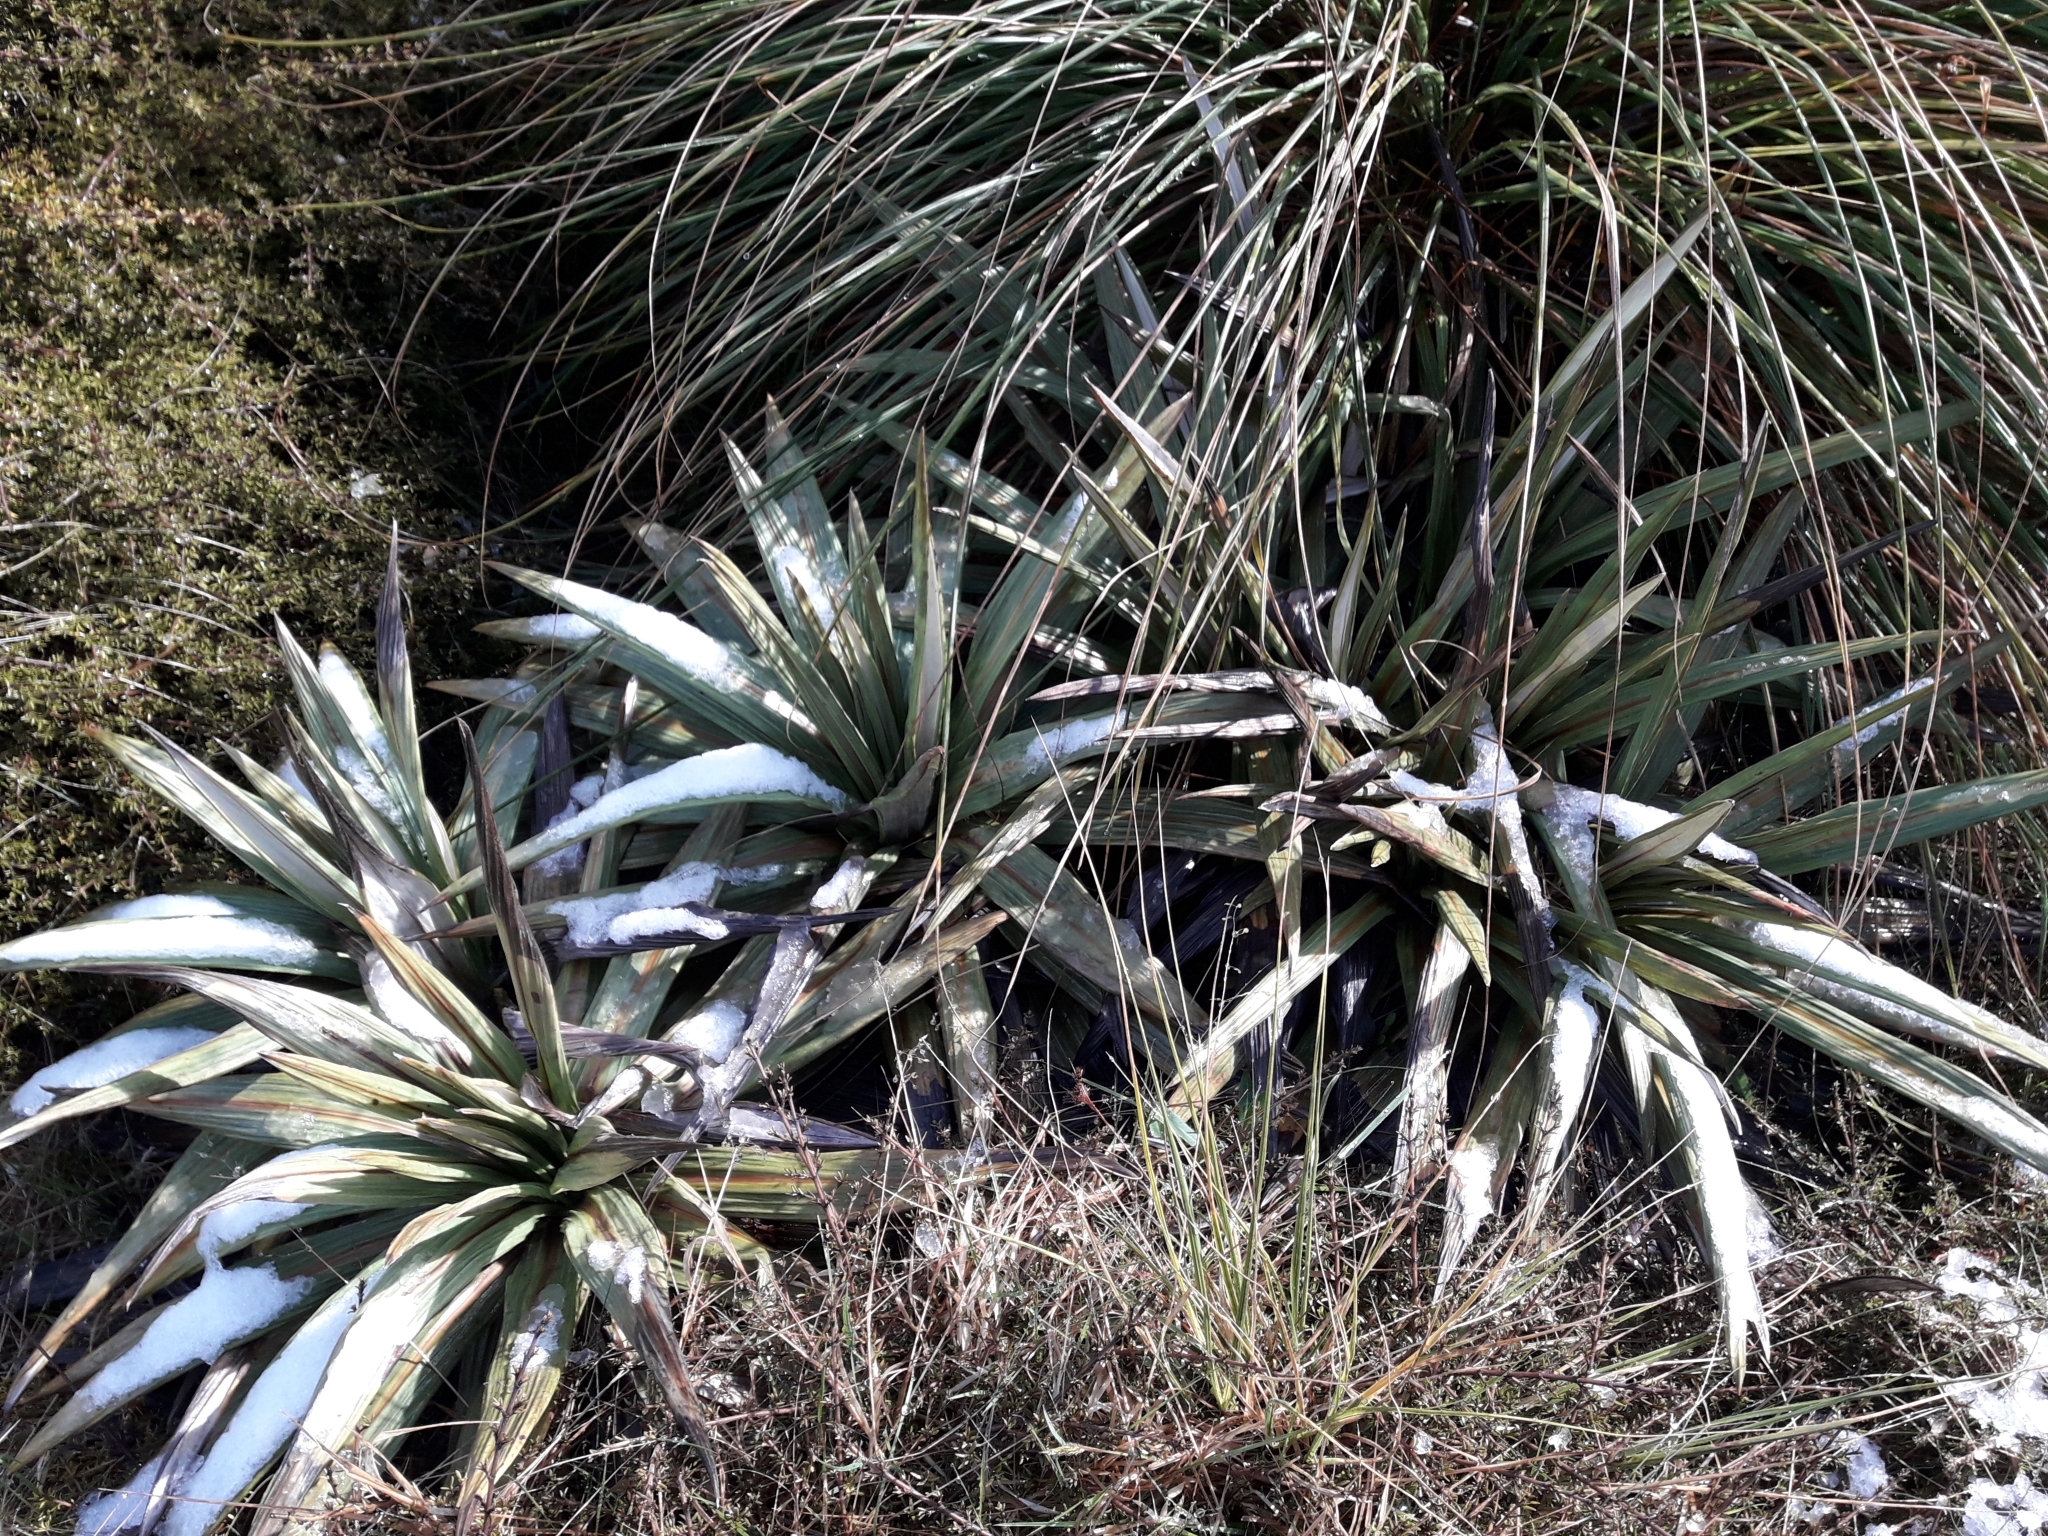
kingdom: Plantae
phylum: Tracheophyta
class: Magnoliopsida
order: Asterales
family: Asteraceae
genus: Celmisia
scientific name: Celmisia coriacea
